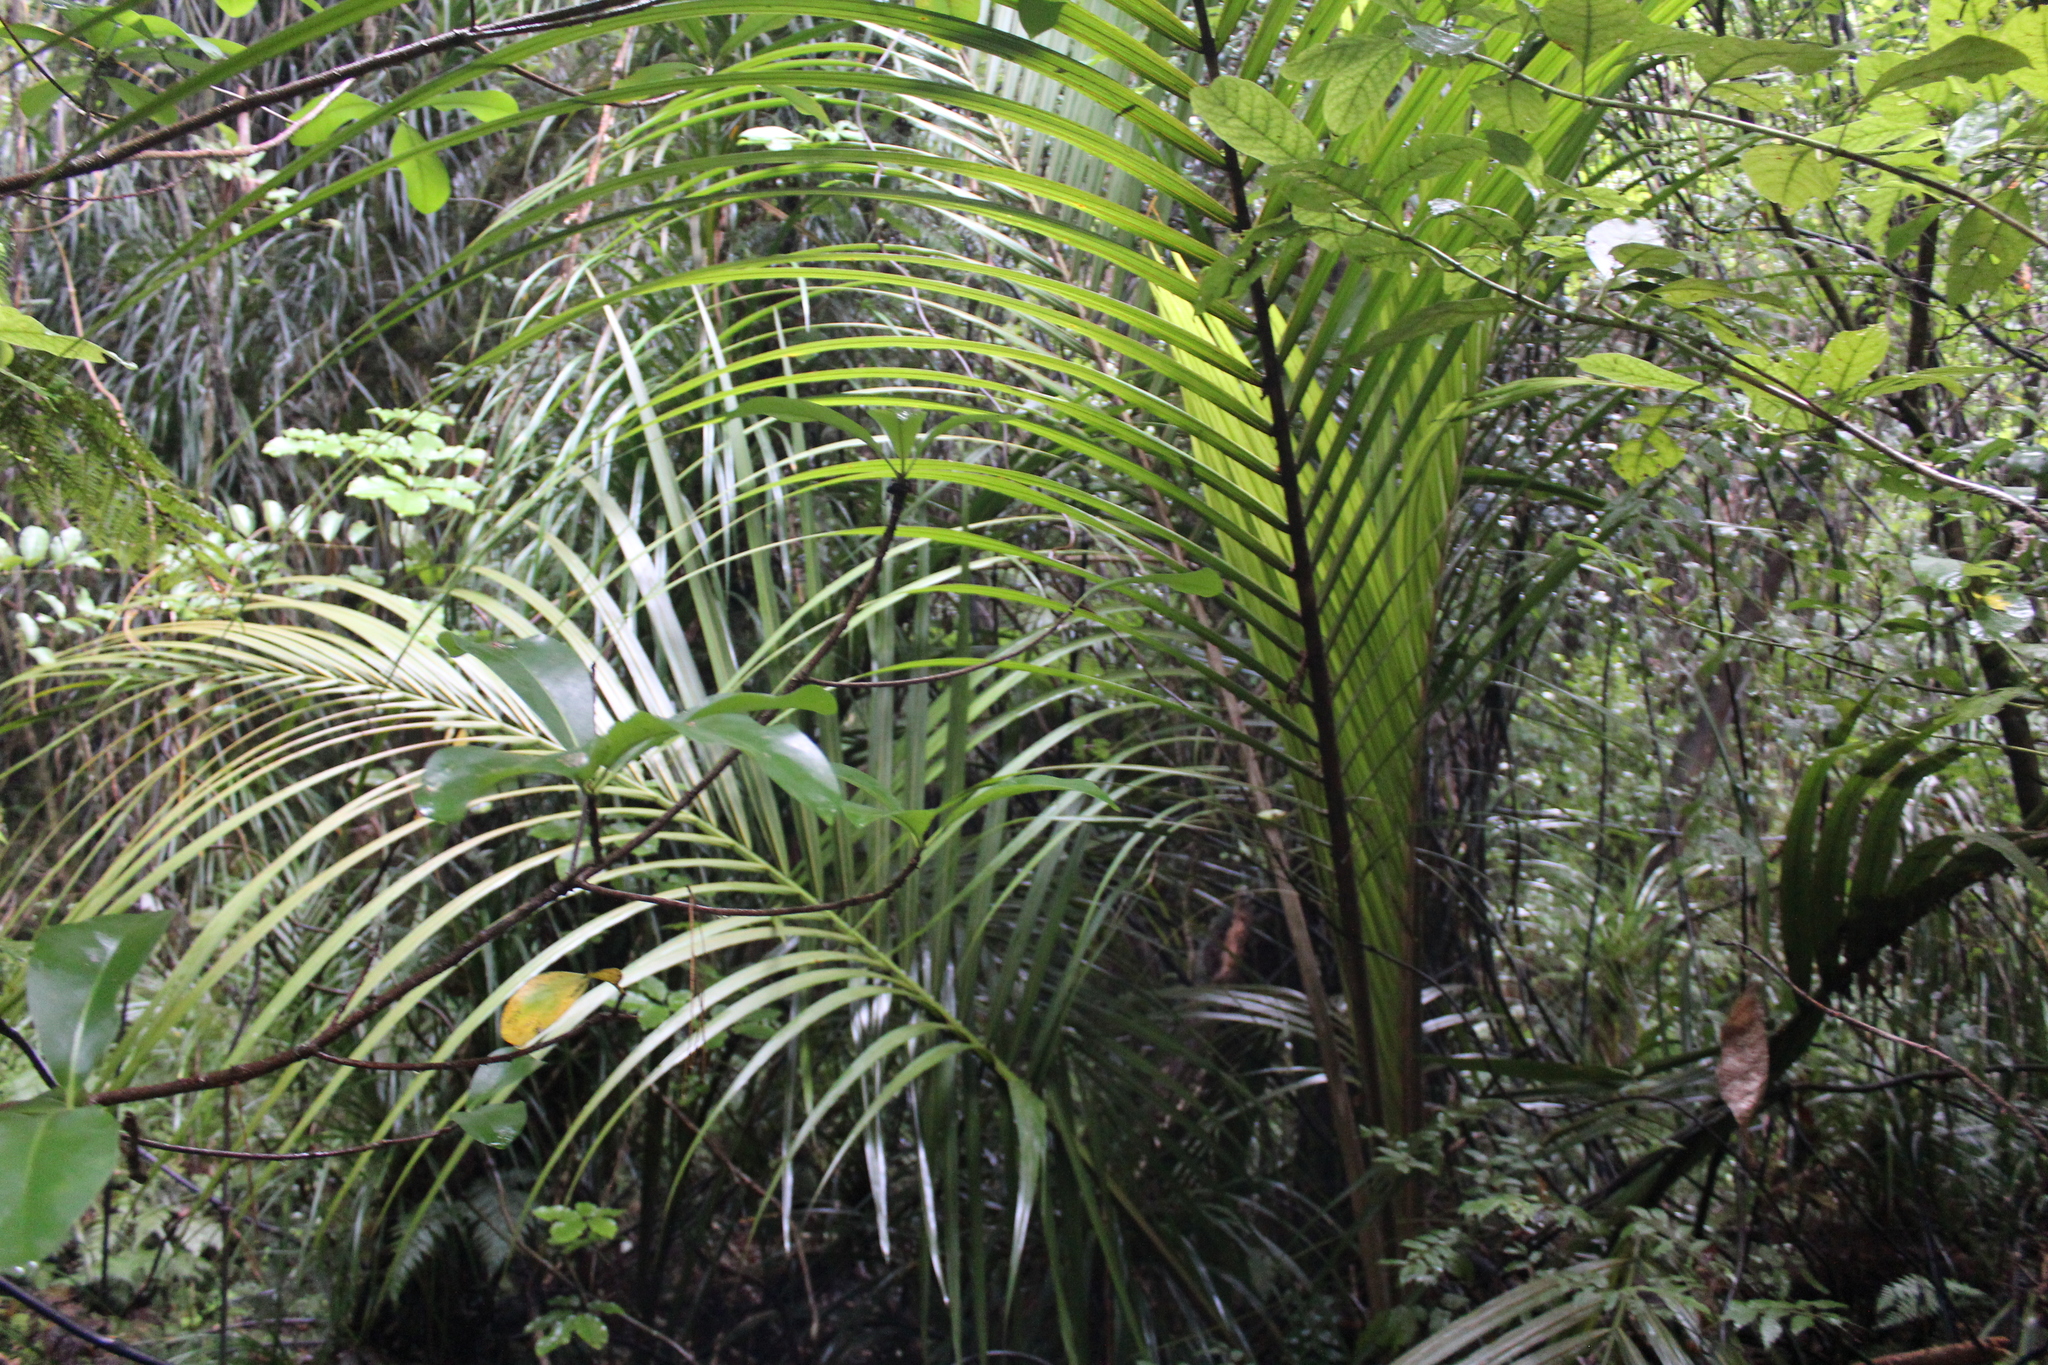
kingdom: Plantae
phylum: Tracheophyta
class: Liliopsida
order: Arecales
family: Arecaceae
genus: Rhopalostylis
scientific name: Rhopalostylis sapida
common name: Feather-duster palm
